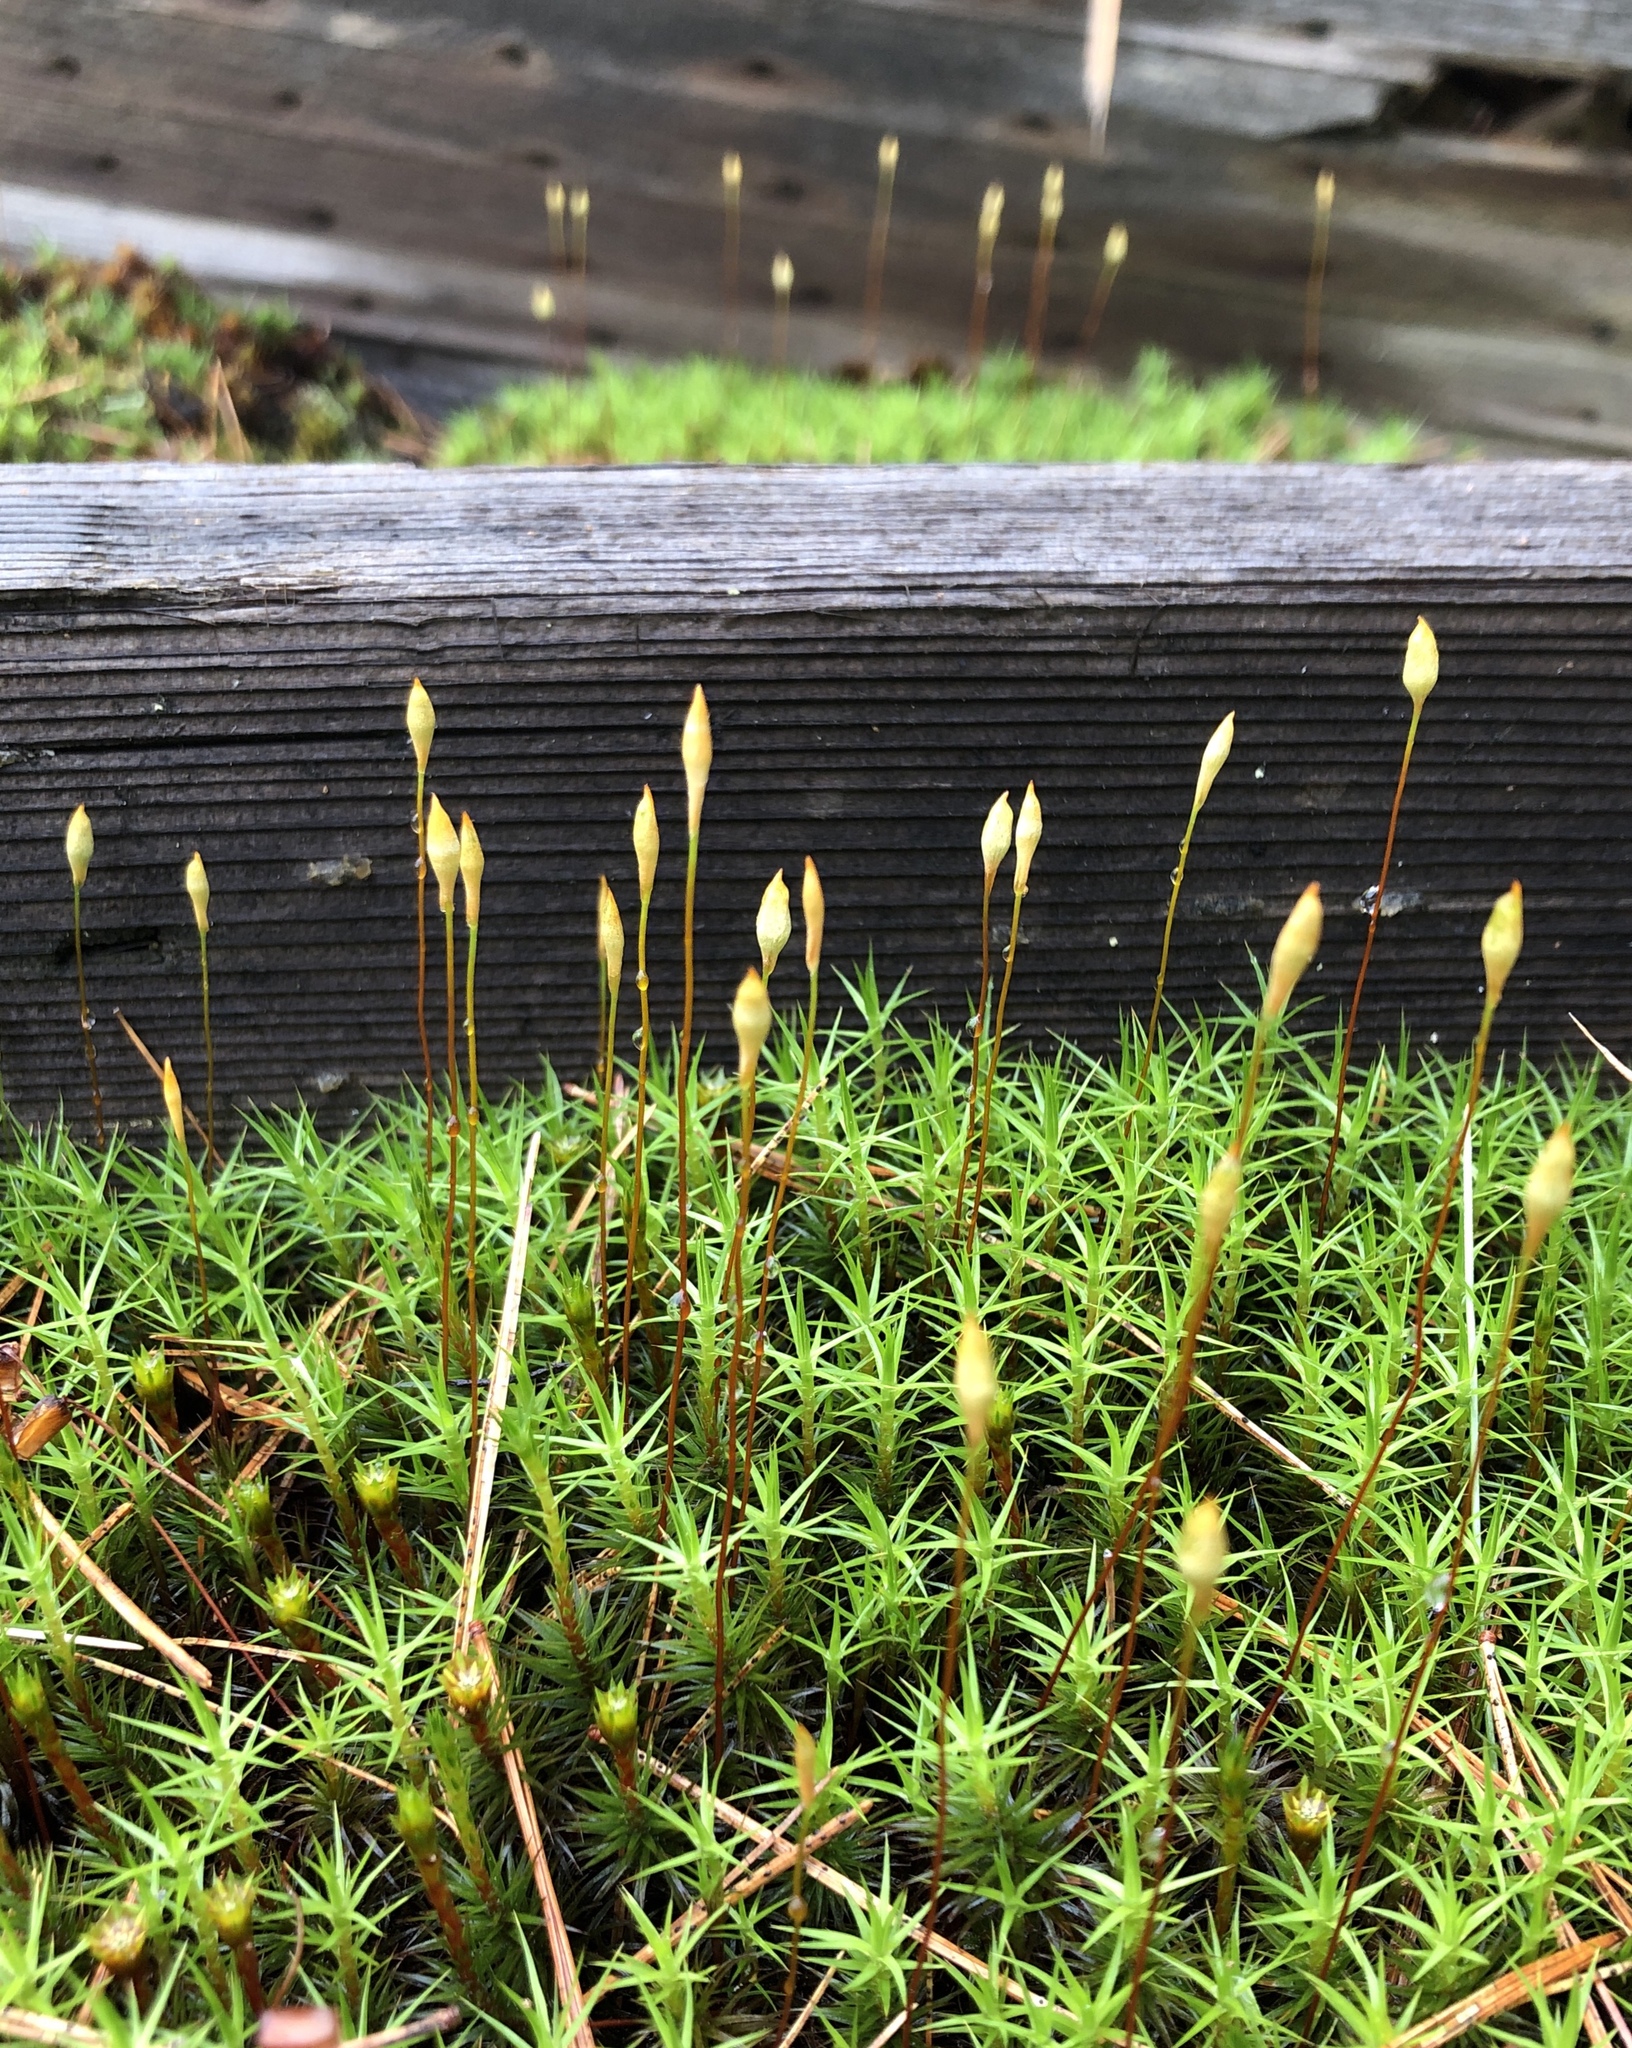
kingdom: Plantae
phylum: Bryophyta
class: Polytrichopsida
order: Polytrichales
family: Polytrichaceae
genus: Polytrichum
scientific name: Polytrichum commune
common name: Common haircap
